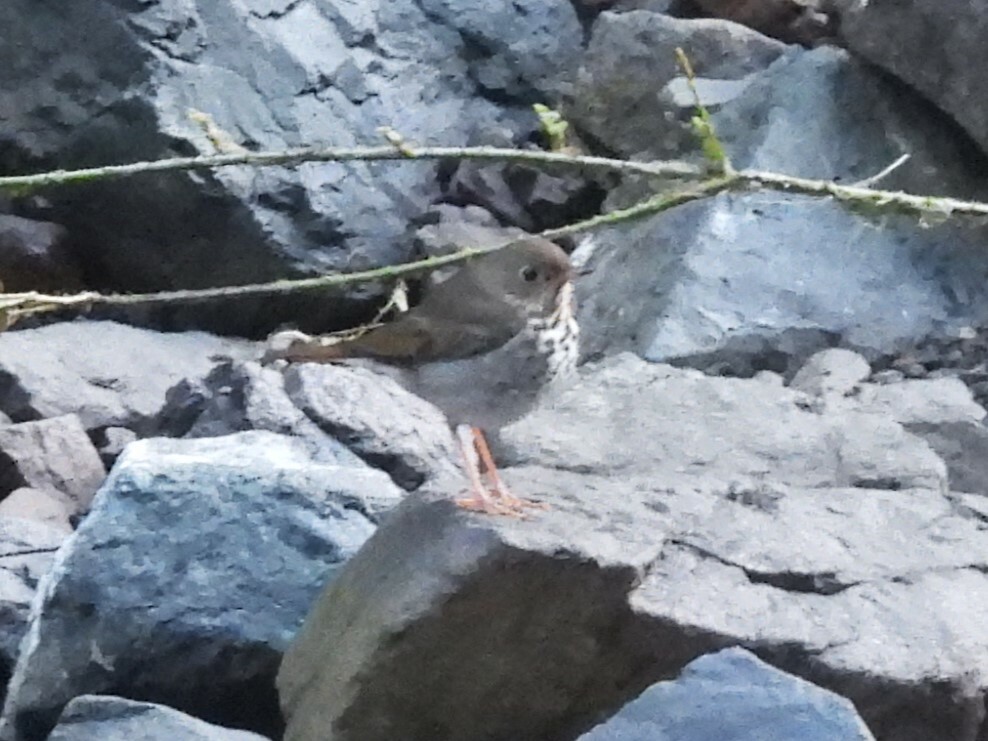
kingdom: Animalia
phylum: Chordata
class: Aves
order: Passeriformes
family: Turdidae
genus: Catharus
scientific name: Catharus guttatus
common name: Hermit thrush
